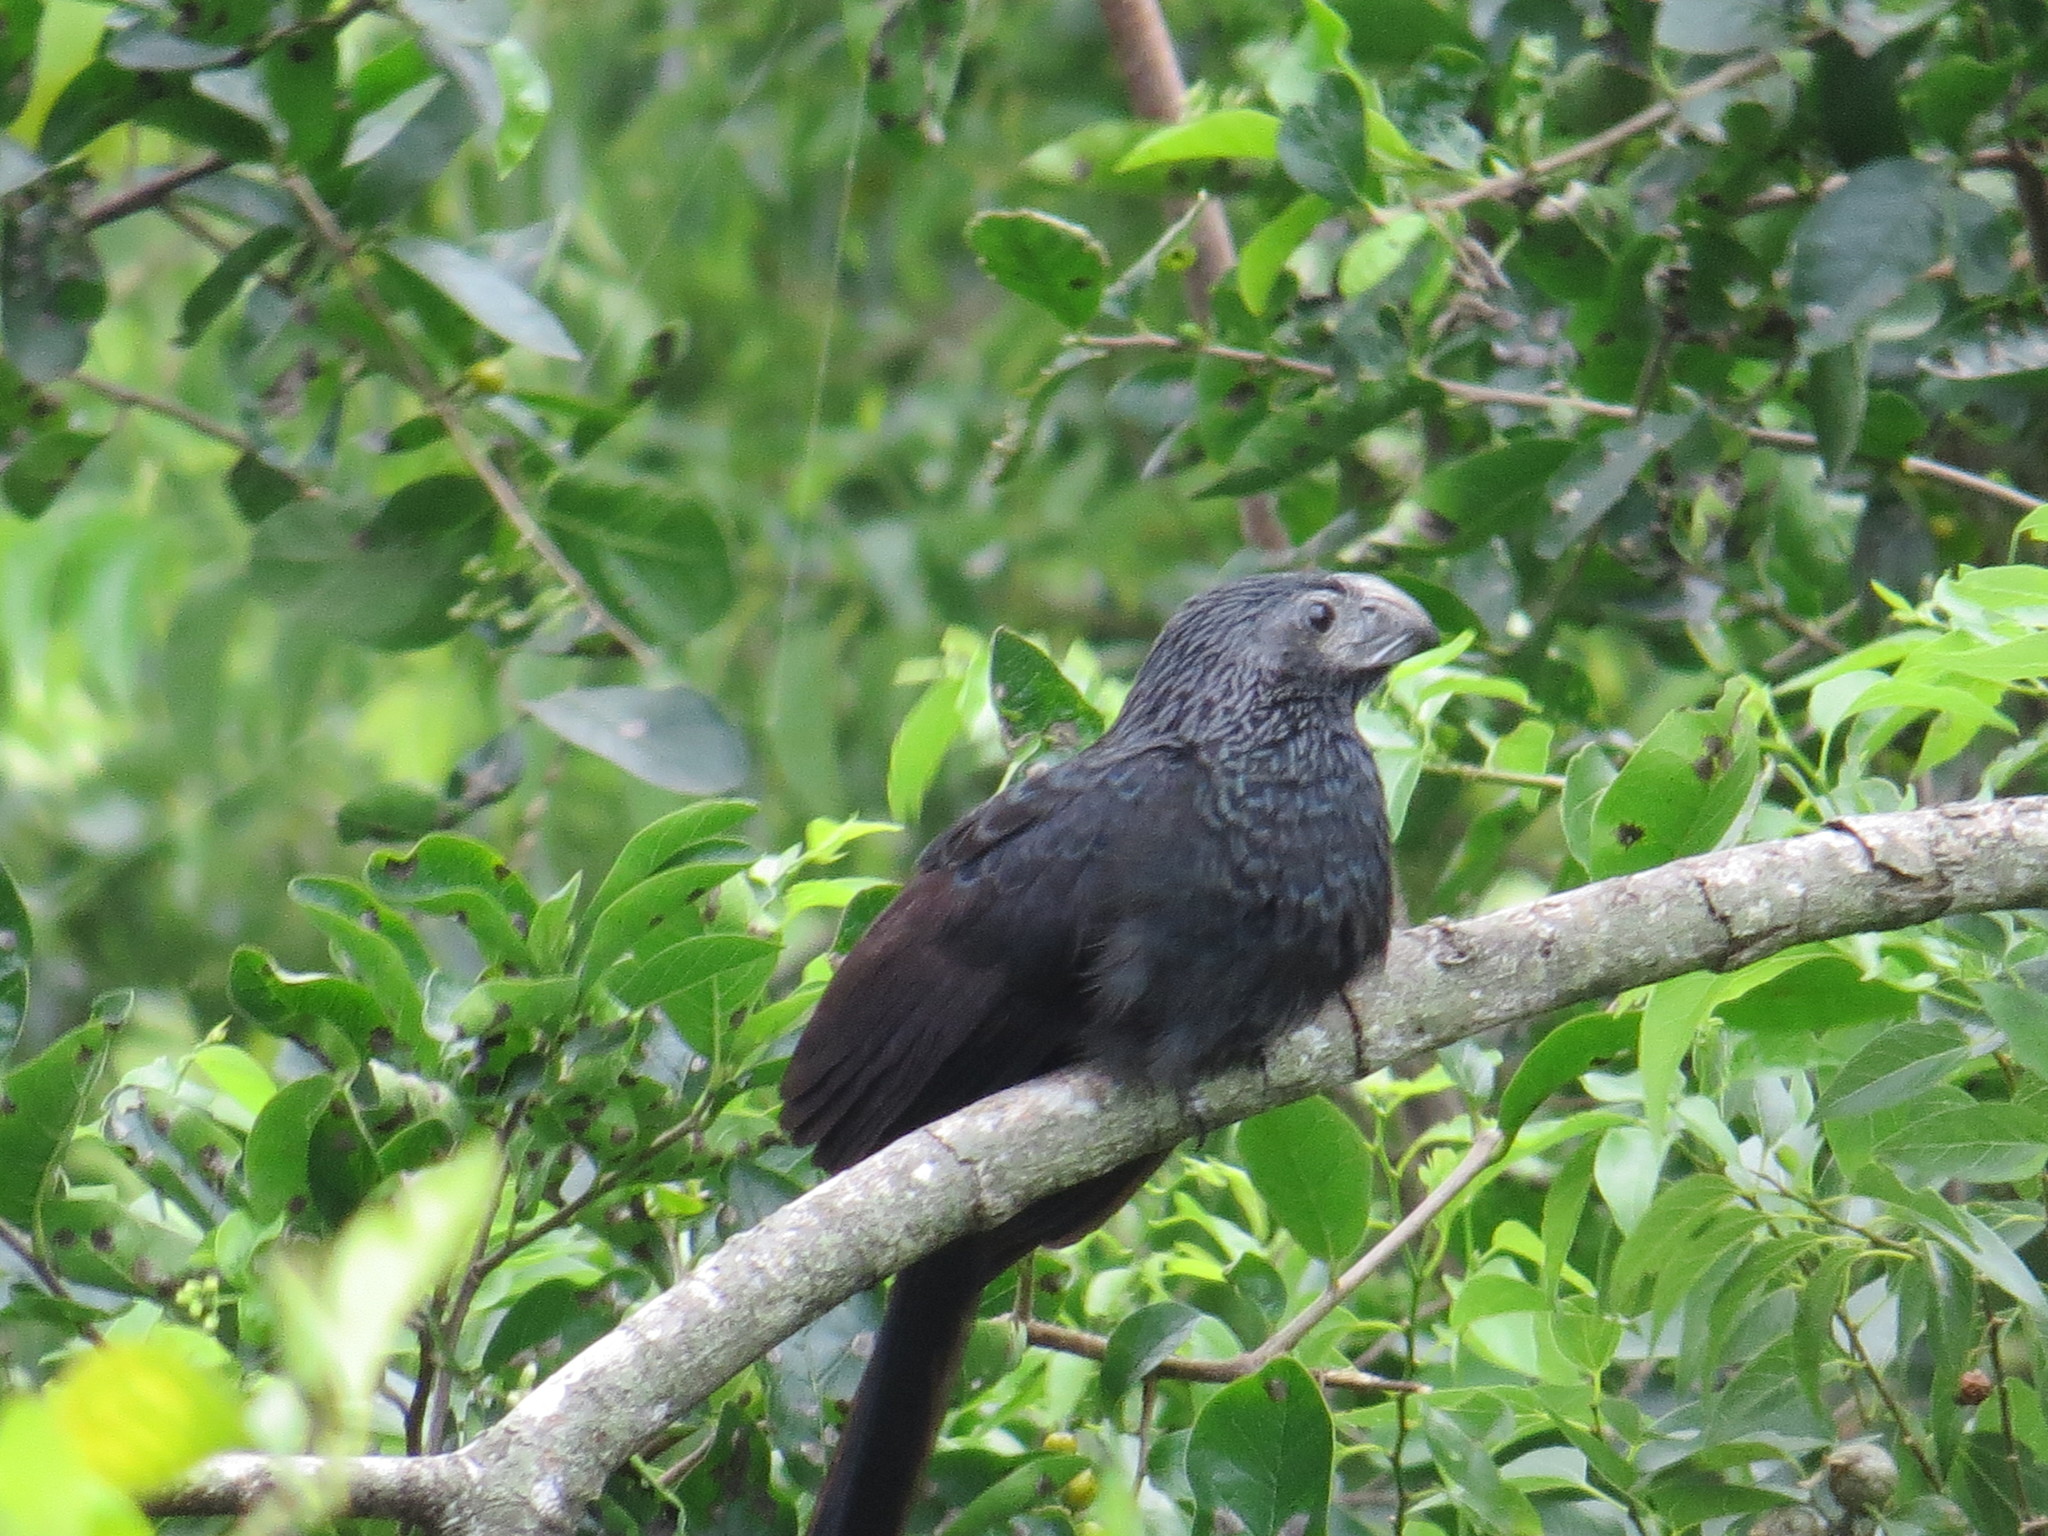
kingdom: Animalia
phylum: Chordata
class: Aves
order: Cuculiformes
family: Cuculidae
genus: Crotophaga
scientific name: Crotophaga sulcirostris
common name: Groove-billed ani
